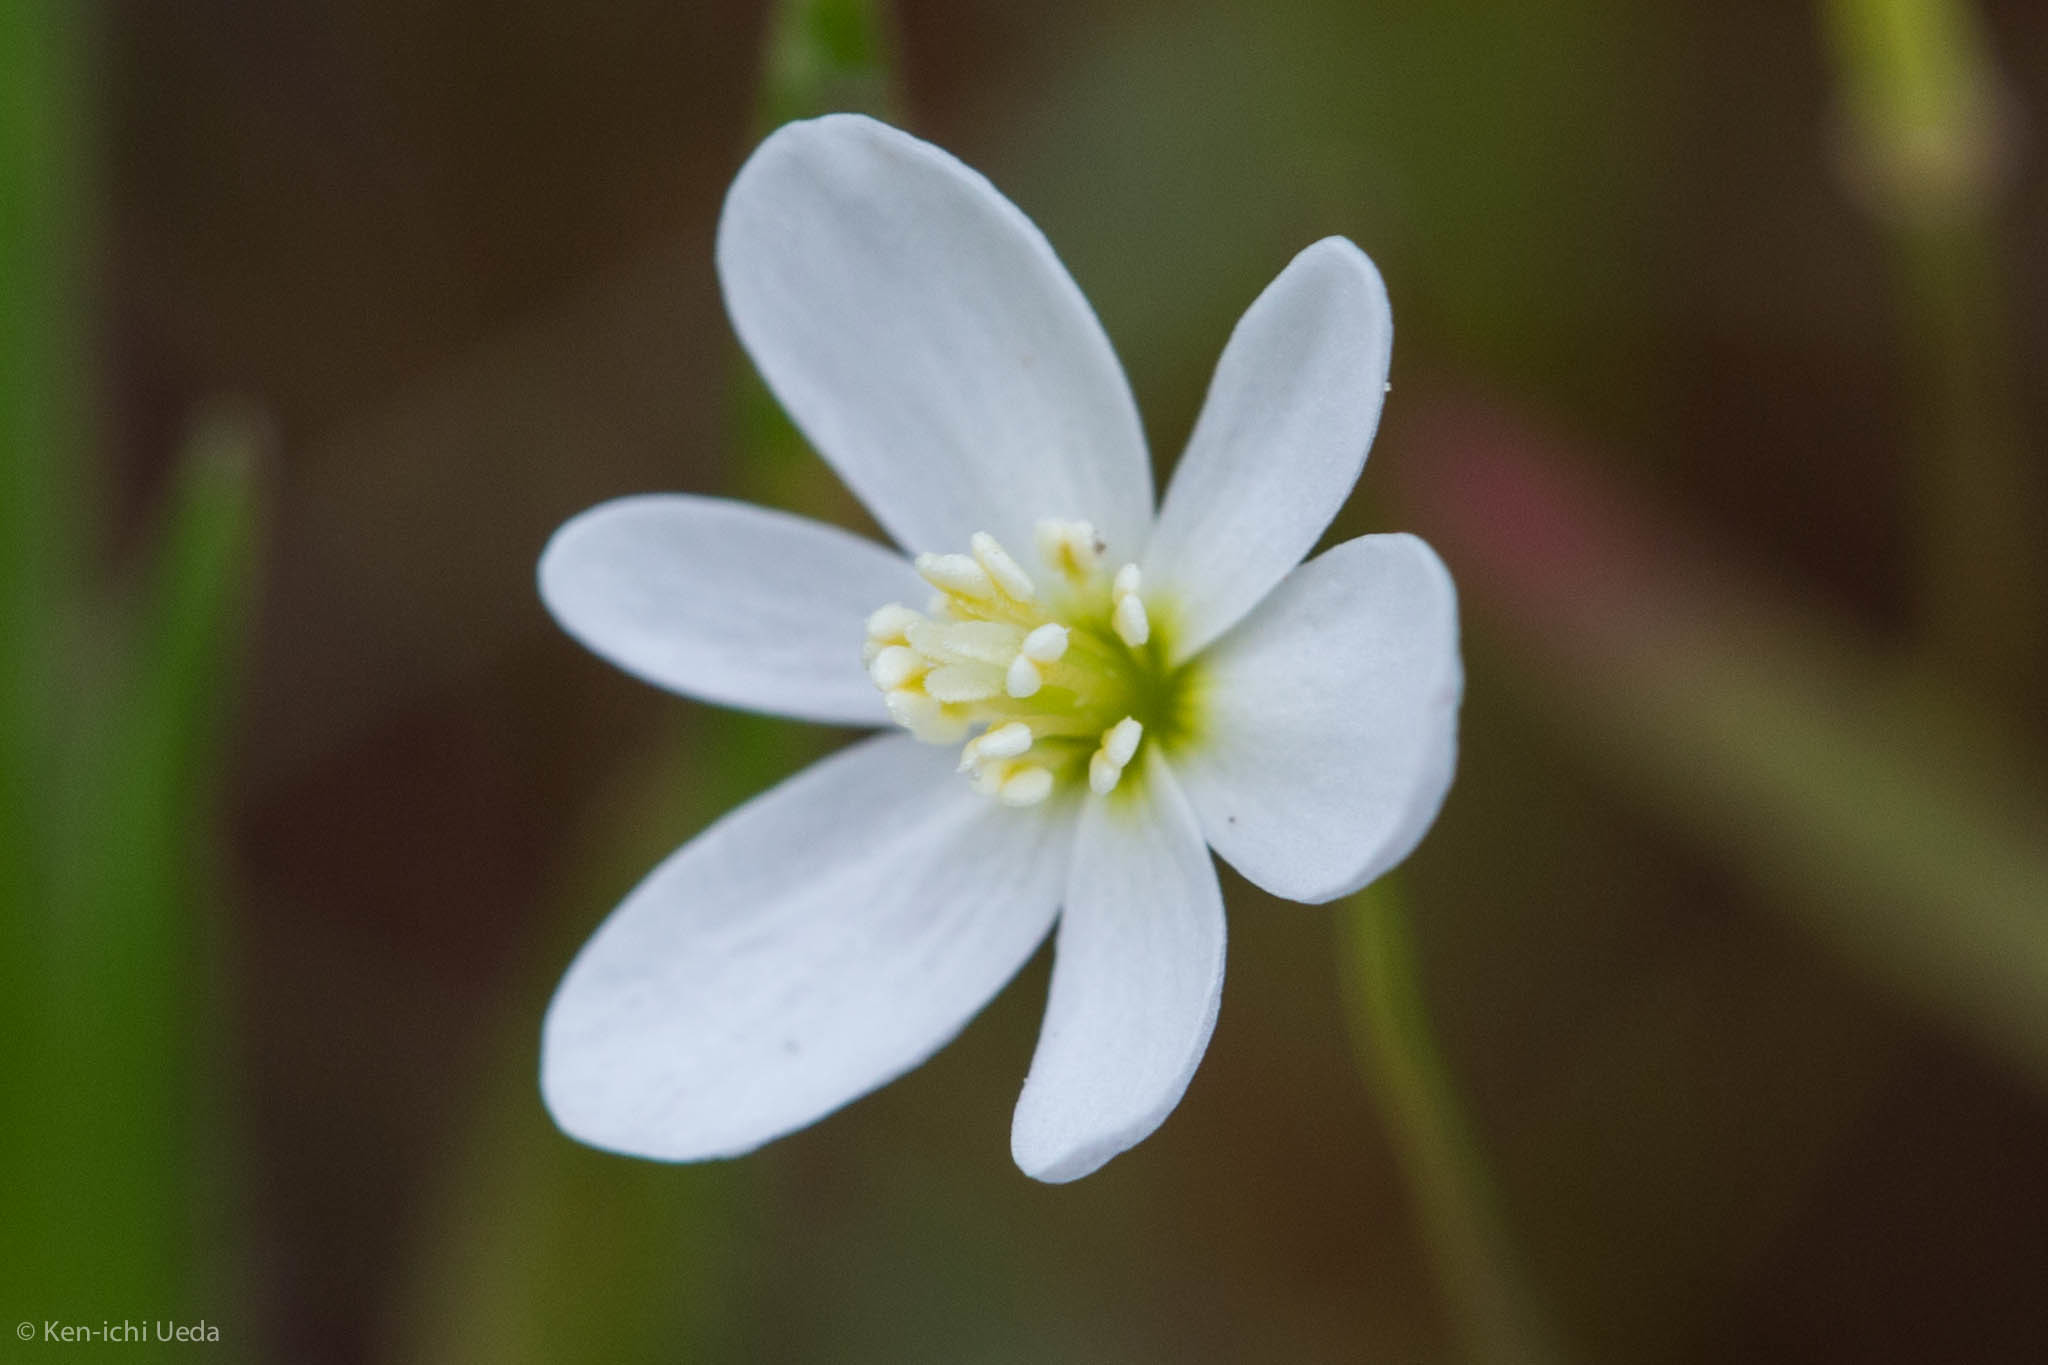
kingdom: Plantae
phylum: Tracheophyta
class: Magnoliopsida
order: Ranunculales
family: Papaveraceae
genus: Meconella
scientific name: Meconella californica
